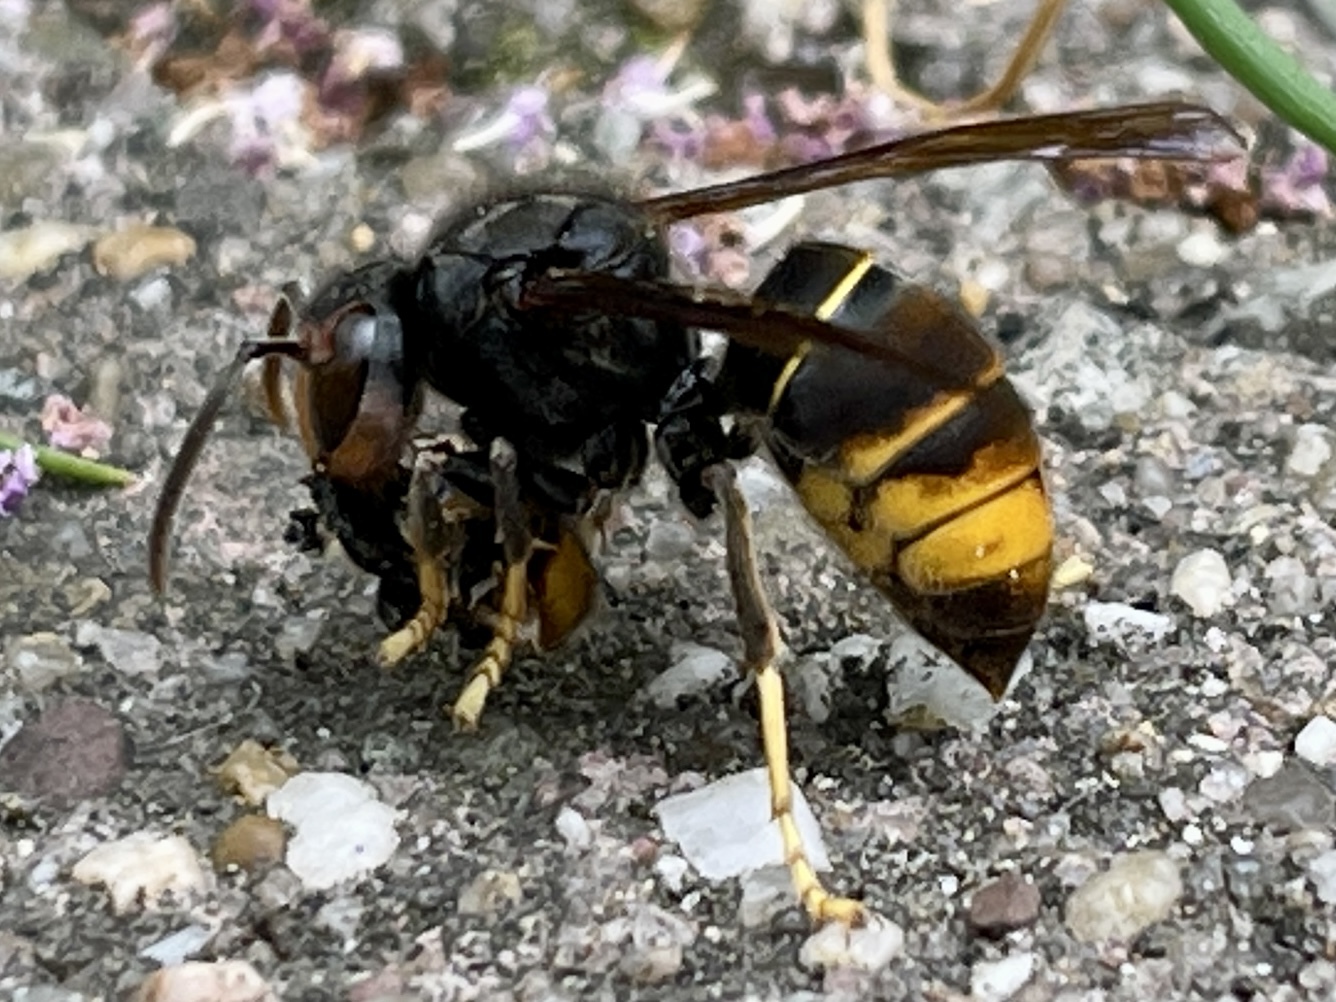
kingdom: Animalia
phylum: Arthropoda
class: Insecta
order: Hymenoptera
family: Vespidae
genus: Vespa
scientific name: Vespa velutina
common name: Asian hornet
